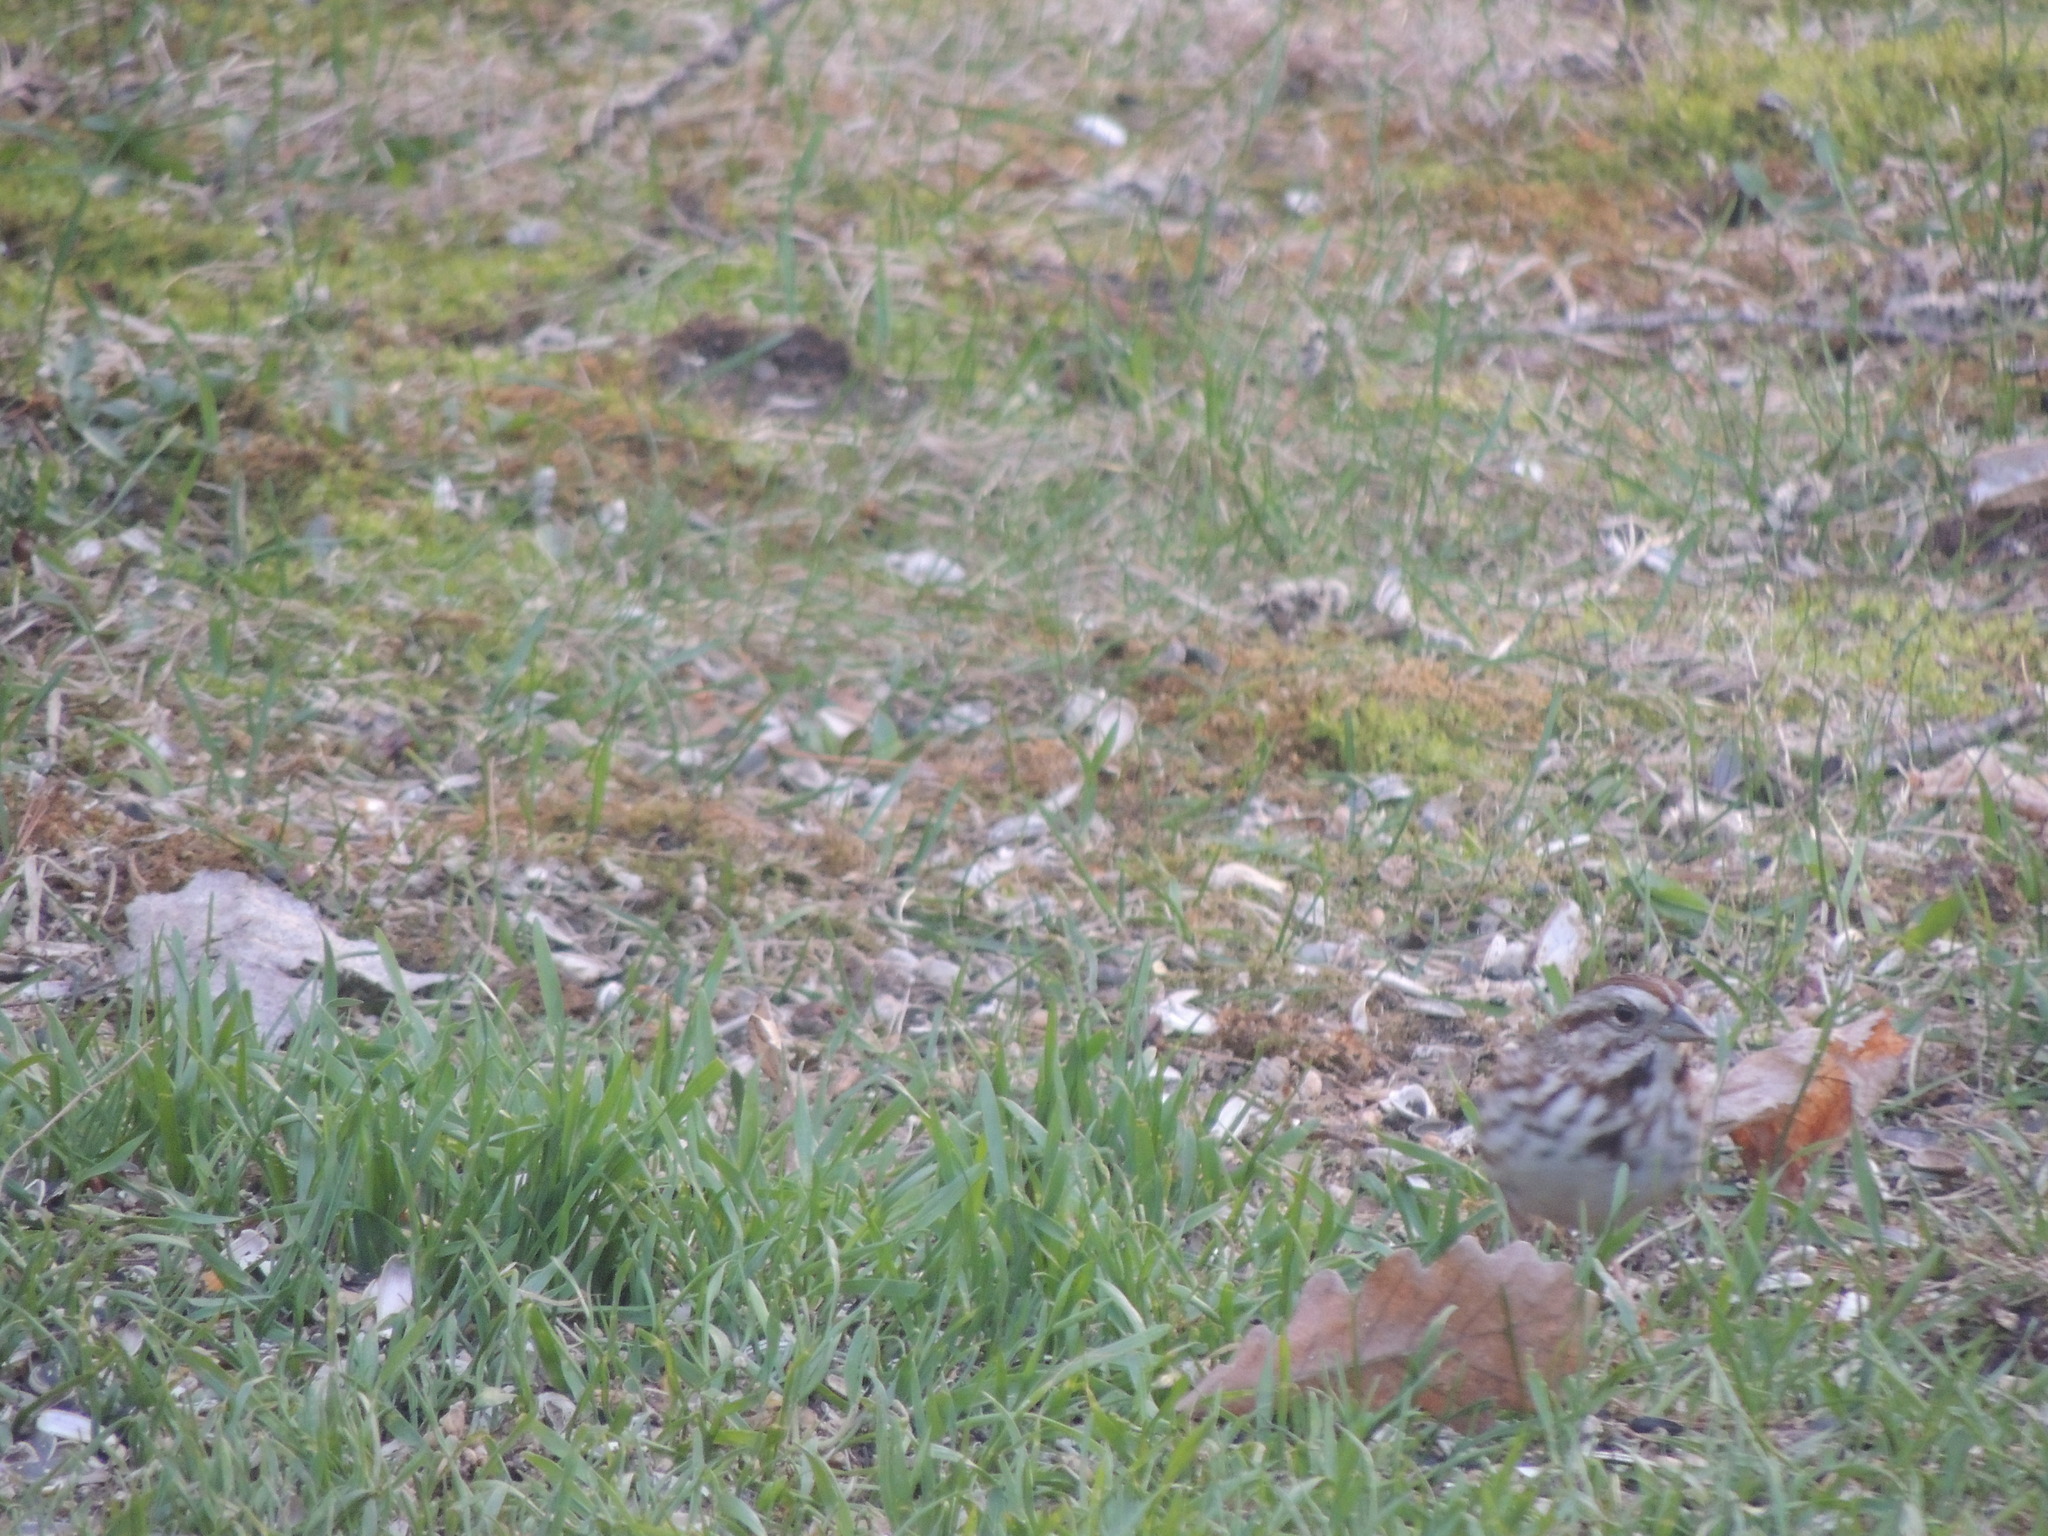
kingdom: Animalia
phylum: Chordata
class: Aves
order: Passeriformes
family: Passerellidae
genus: Melospiza
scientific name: Melospiza melodia
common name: Song sparrow
